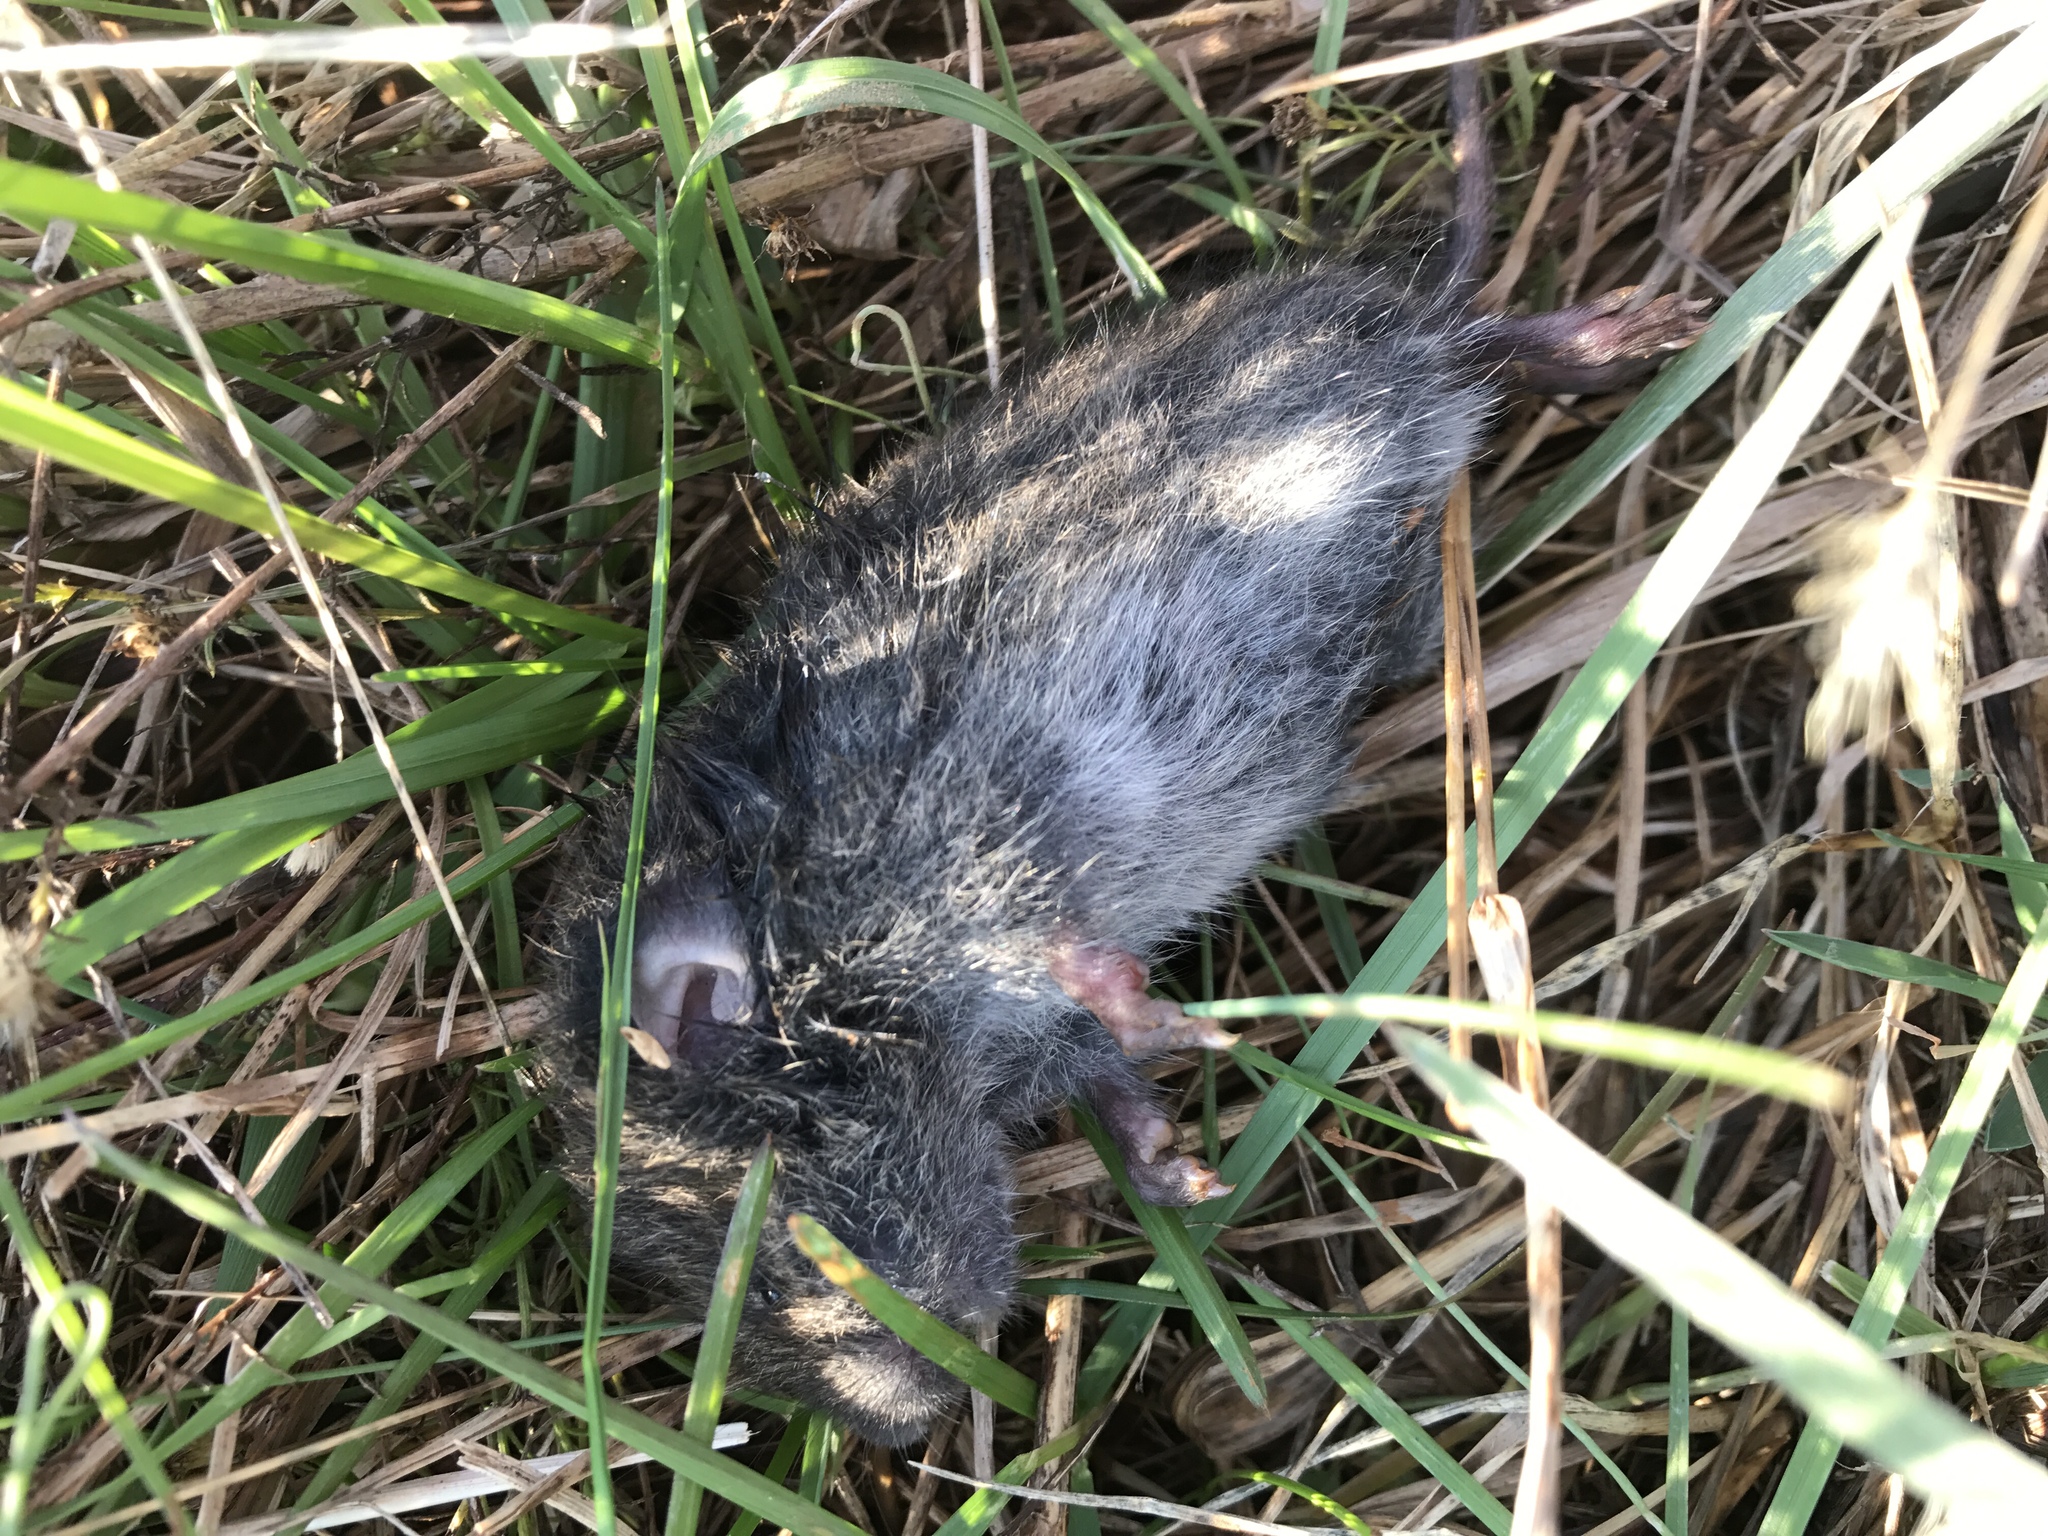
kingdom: Animalia
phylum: Chordata
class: Mammalia
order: Rodentia
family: Cricetidae
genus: Microtus
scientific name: Microtus pennsylvanicus
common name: Meadow vole
